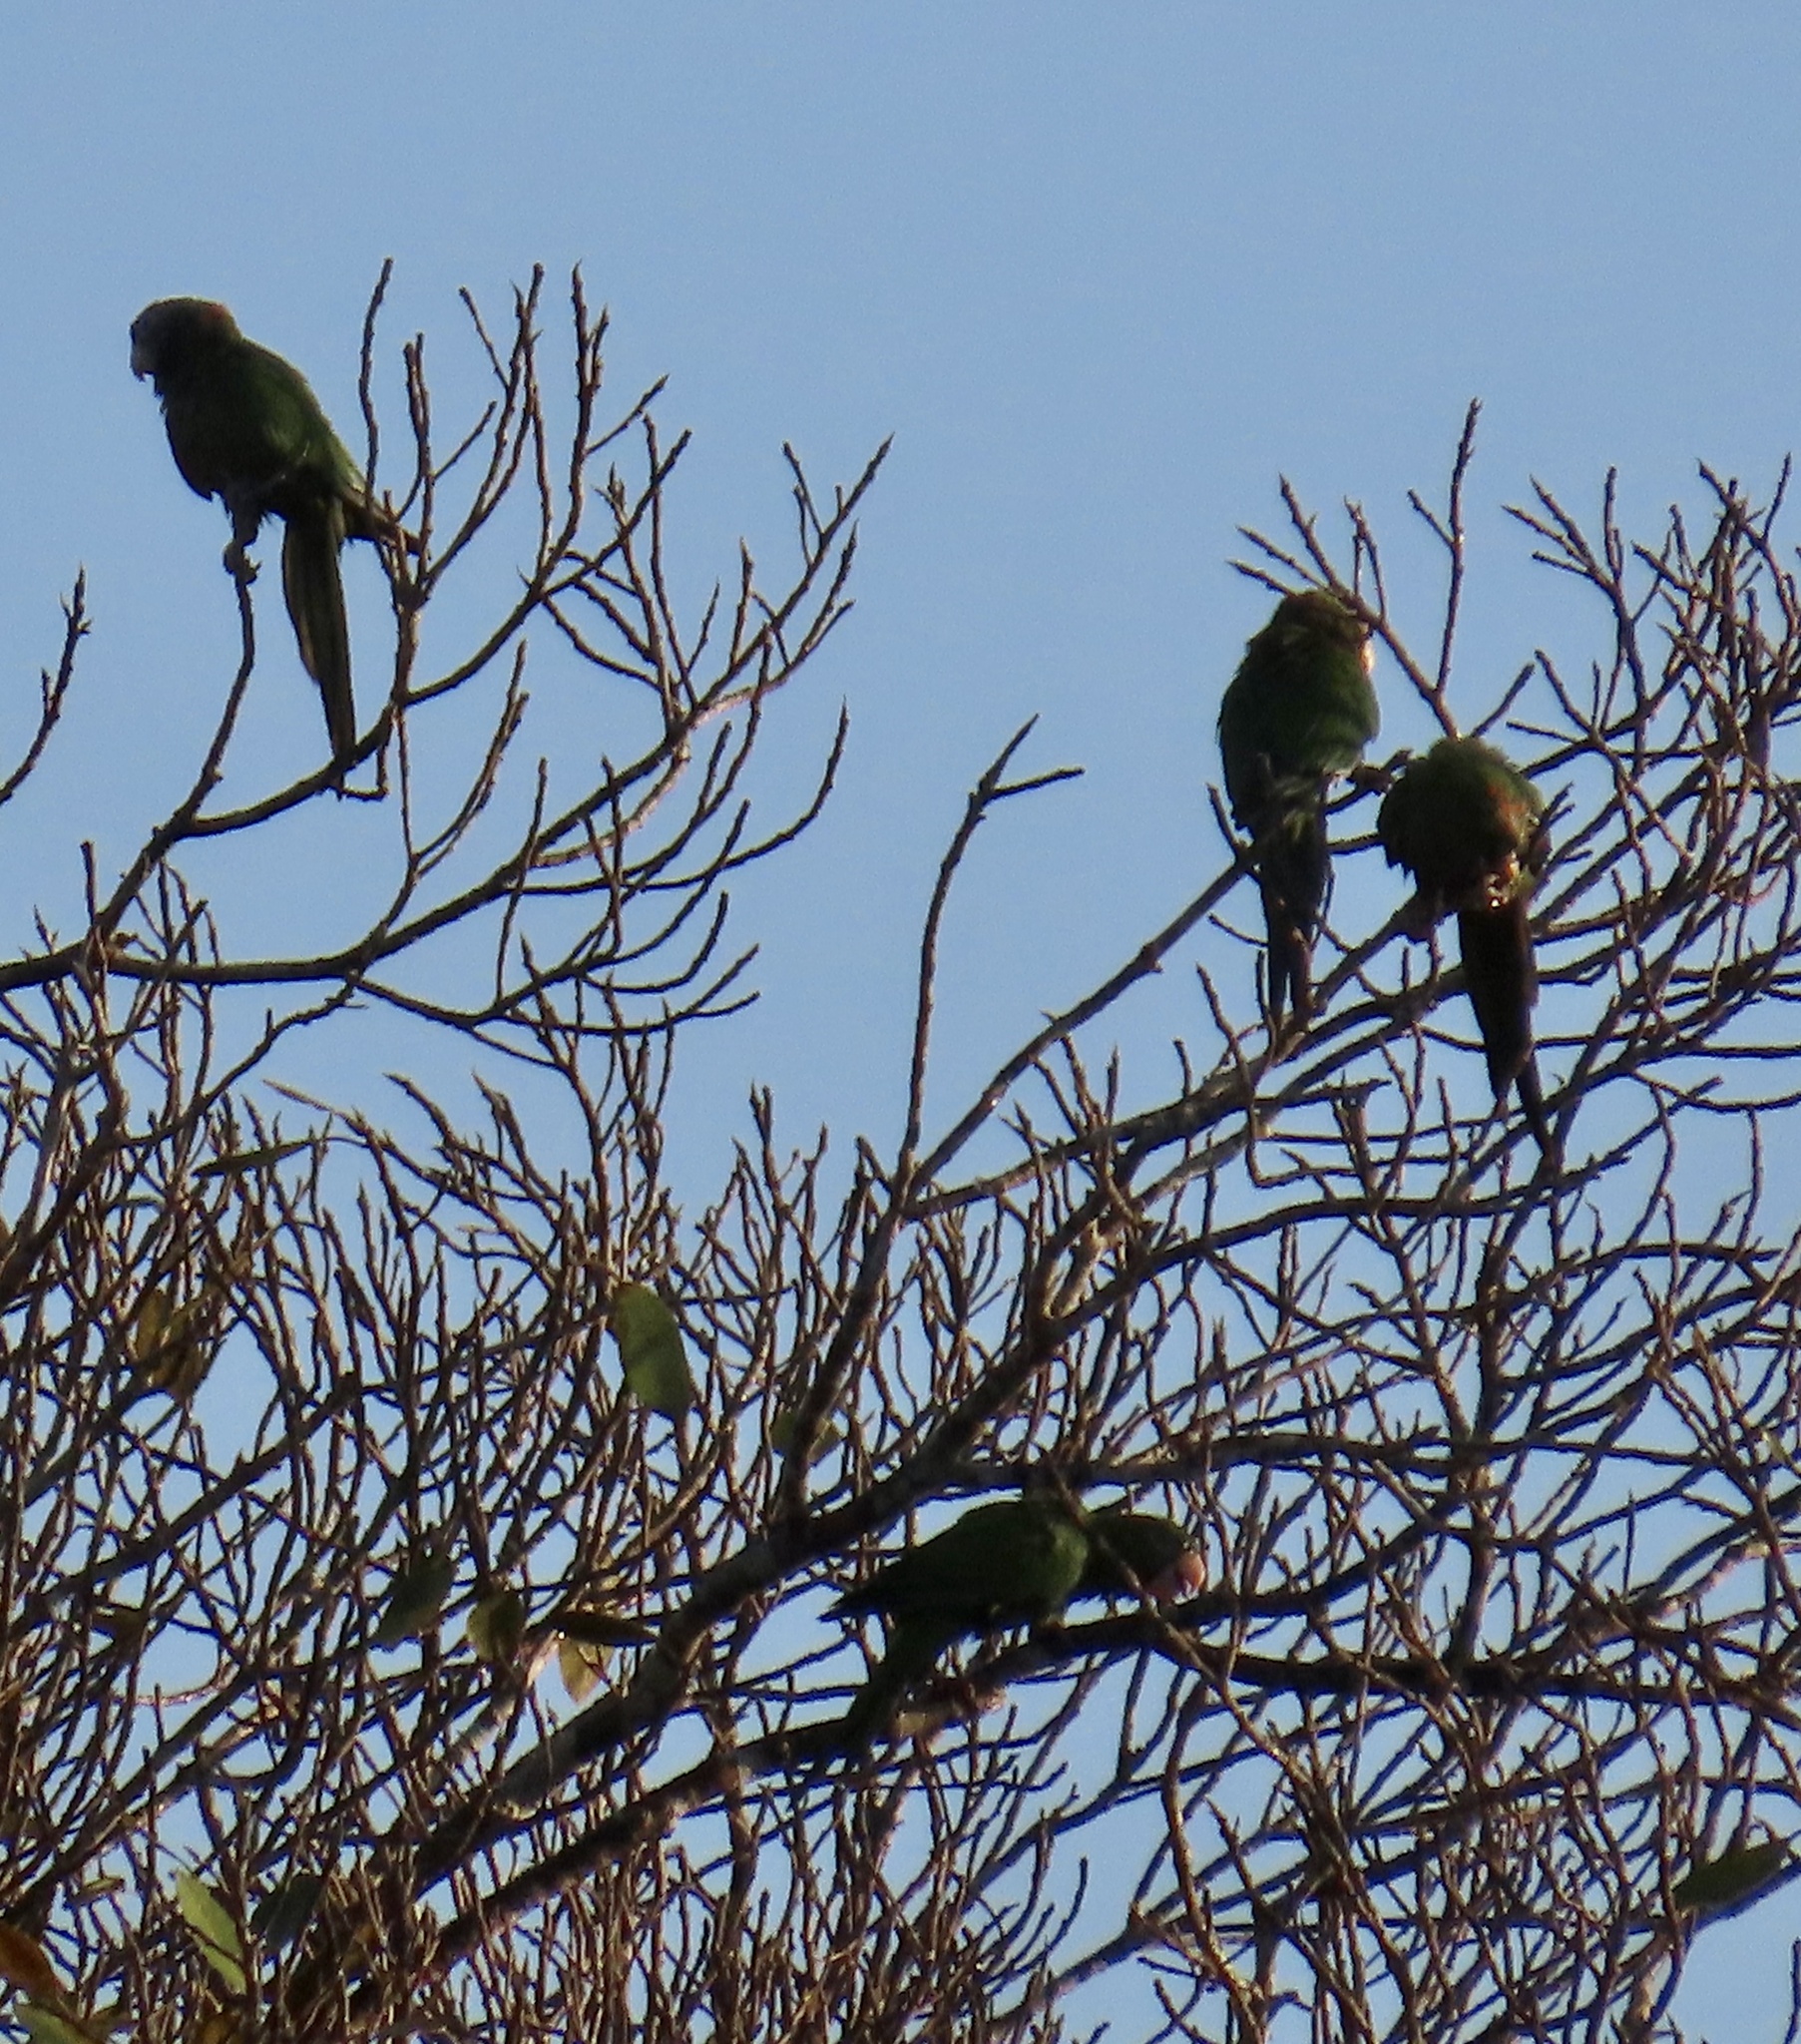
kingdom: Animalia
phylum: Chordata
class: Aves
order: Psittaciformes
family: Psittacidae
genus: Amazona
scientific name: Amazona leucocephala
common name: Cuban amazon
